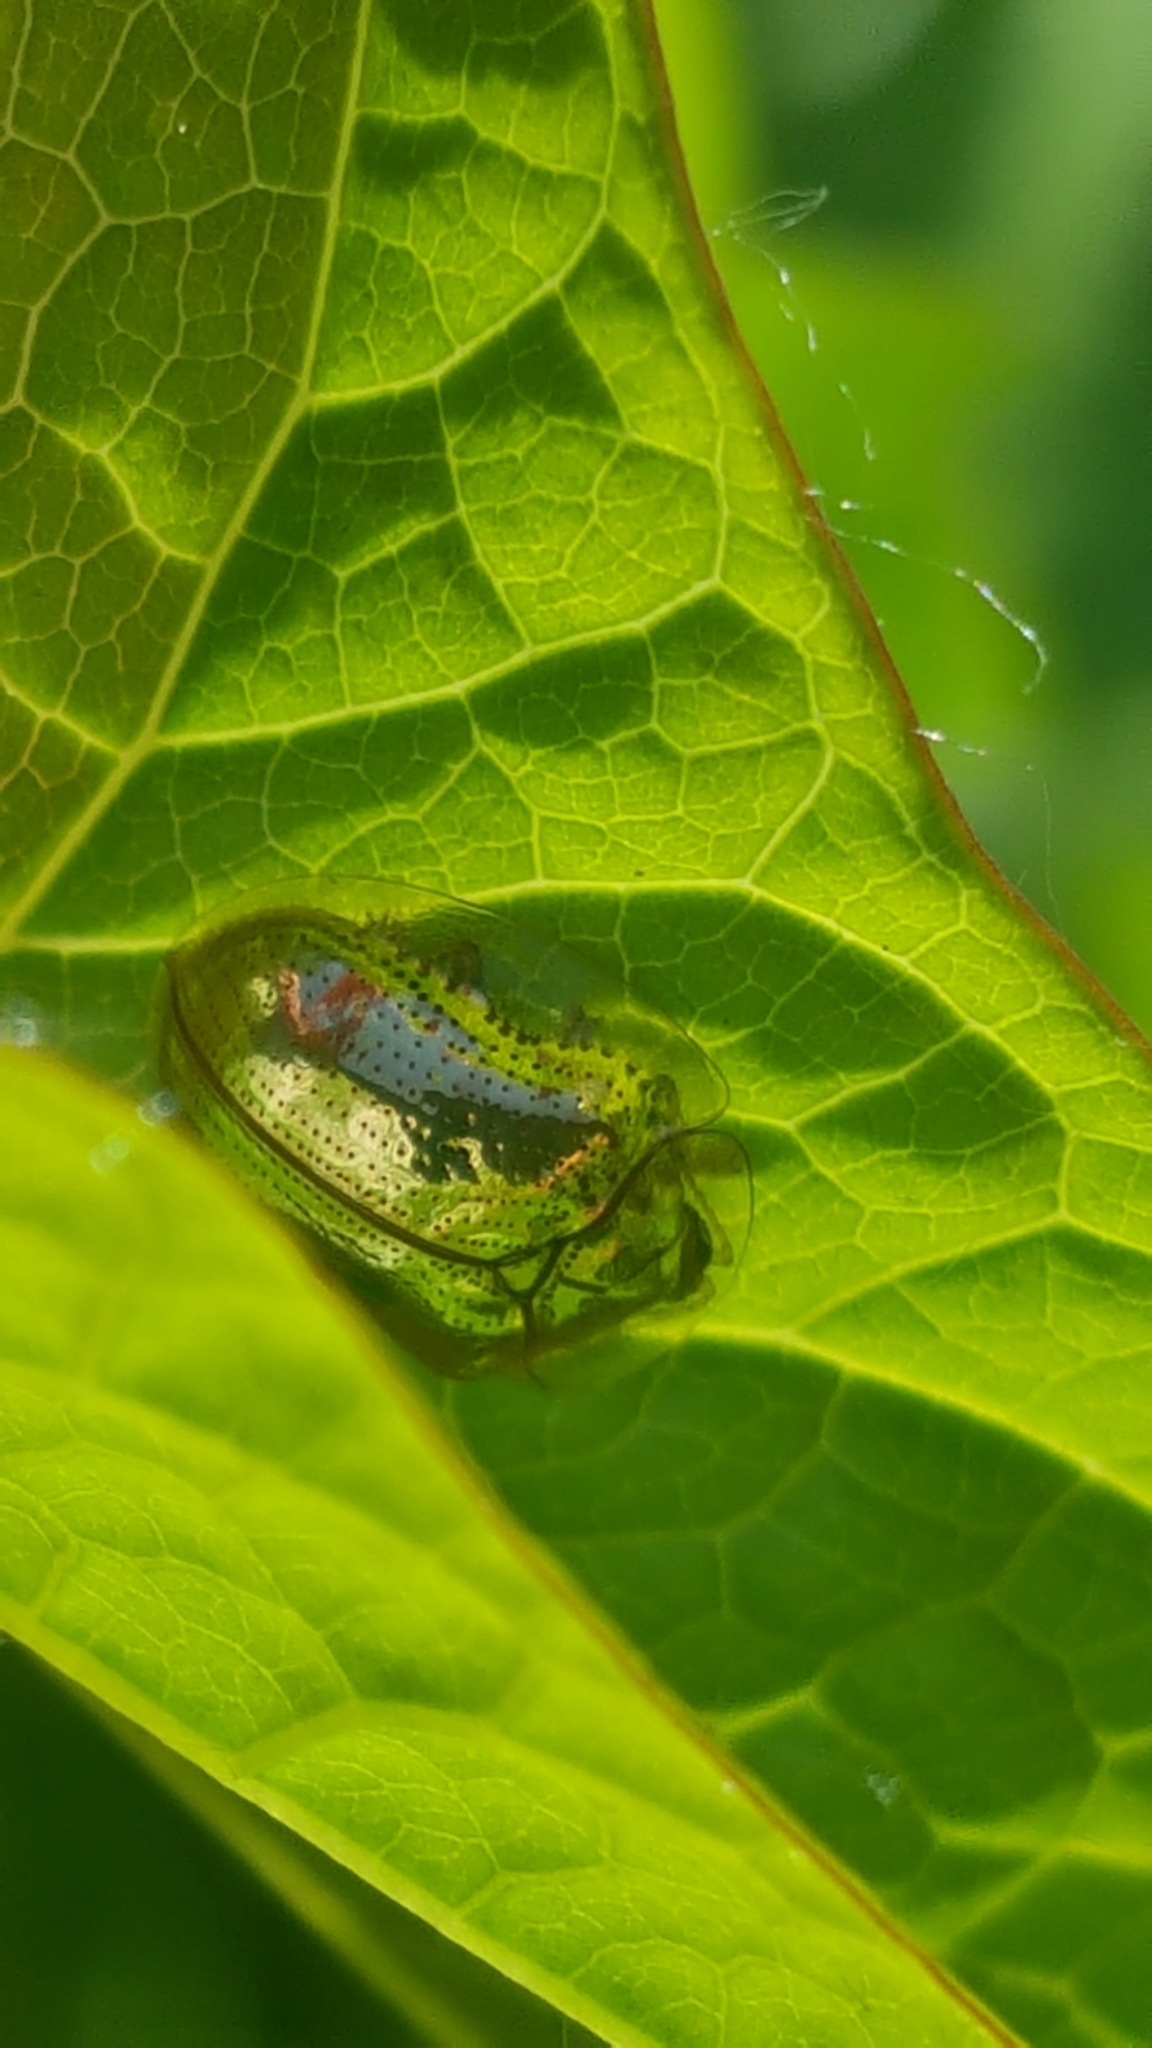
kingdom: Animalia
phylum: Arthropoda
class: Insecta
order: Coleoptera
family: Chrysomelidae
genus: Charidotella
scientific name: Charidotella sexpunctata
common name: Golden tortoise beetle
